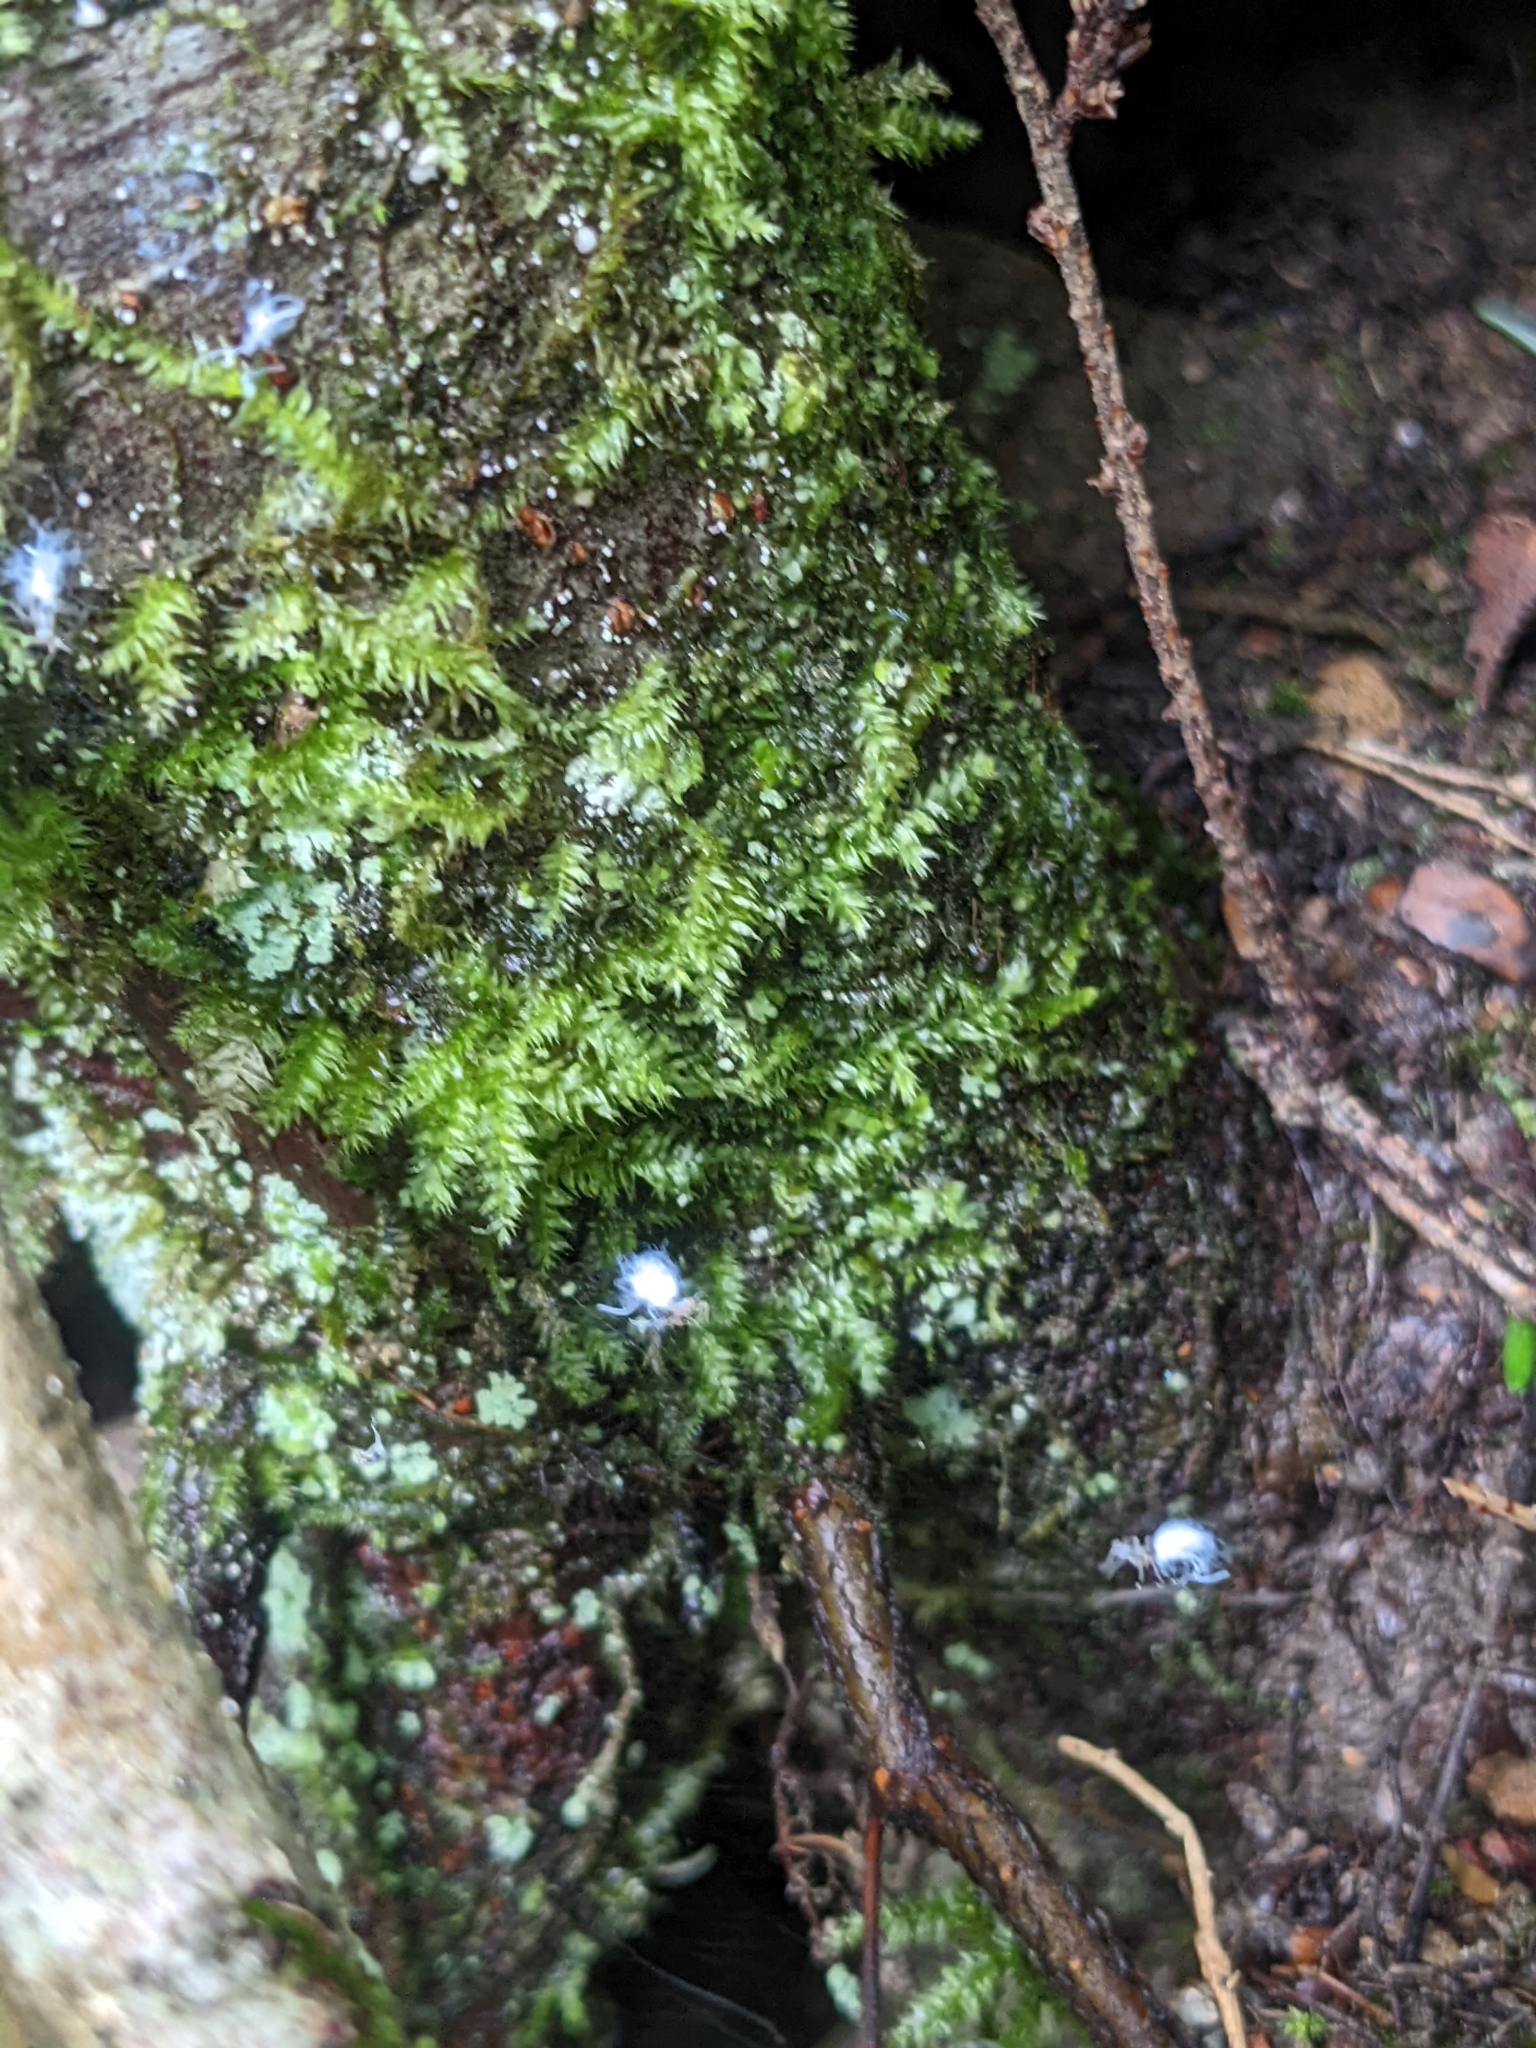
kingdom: Animalia
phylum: Arthropoda
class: Insecta
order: Hemiptera
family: Aphididae
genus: Grylloprociphilus
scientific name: Grylloprociphilus imbricator
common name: Beech blight aphid
